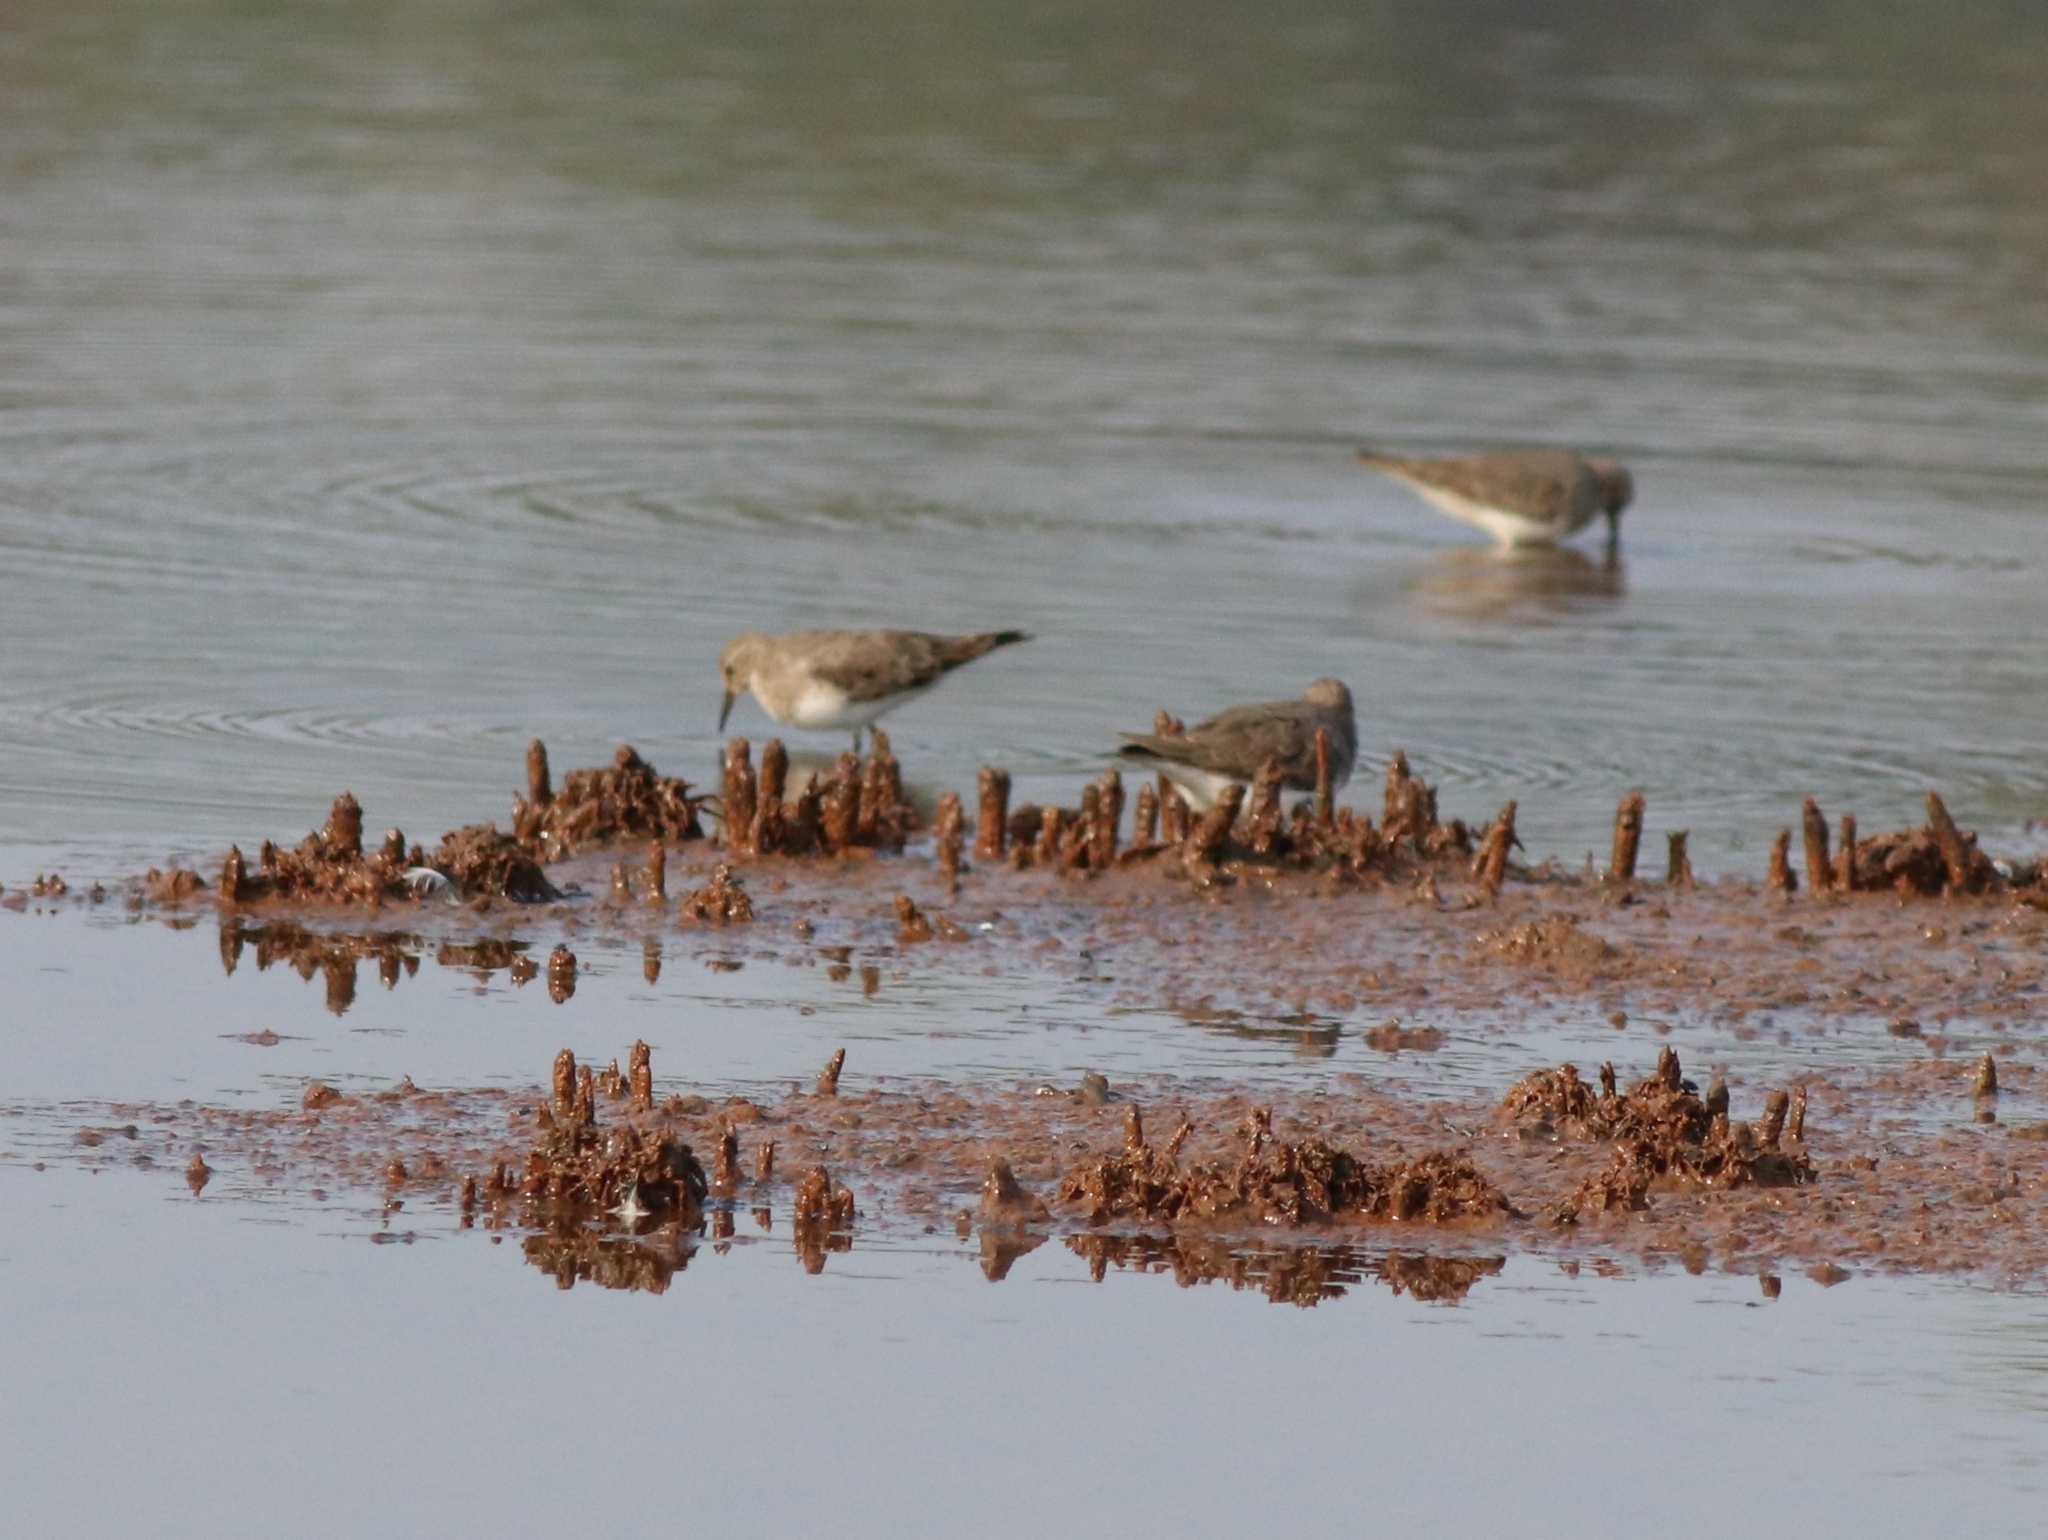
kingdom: Animalia
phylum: Chordata
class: Aves
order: Charadriiformes
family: Scolopacidae
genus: Calidris
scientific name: Calidris temminckii
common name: Temminck's stint
